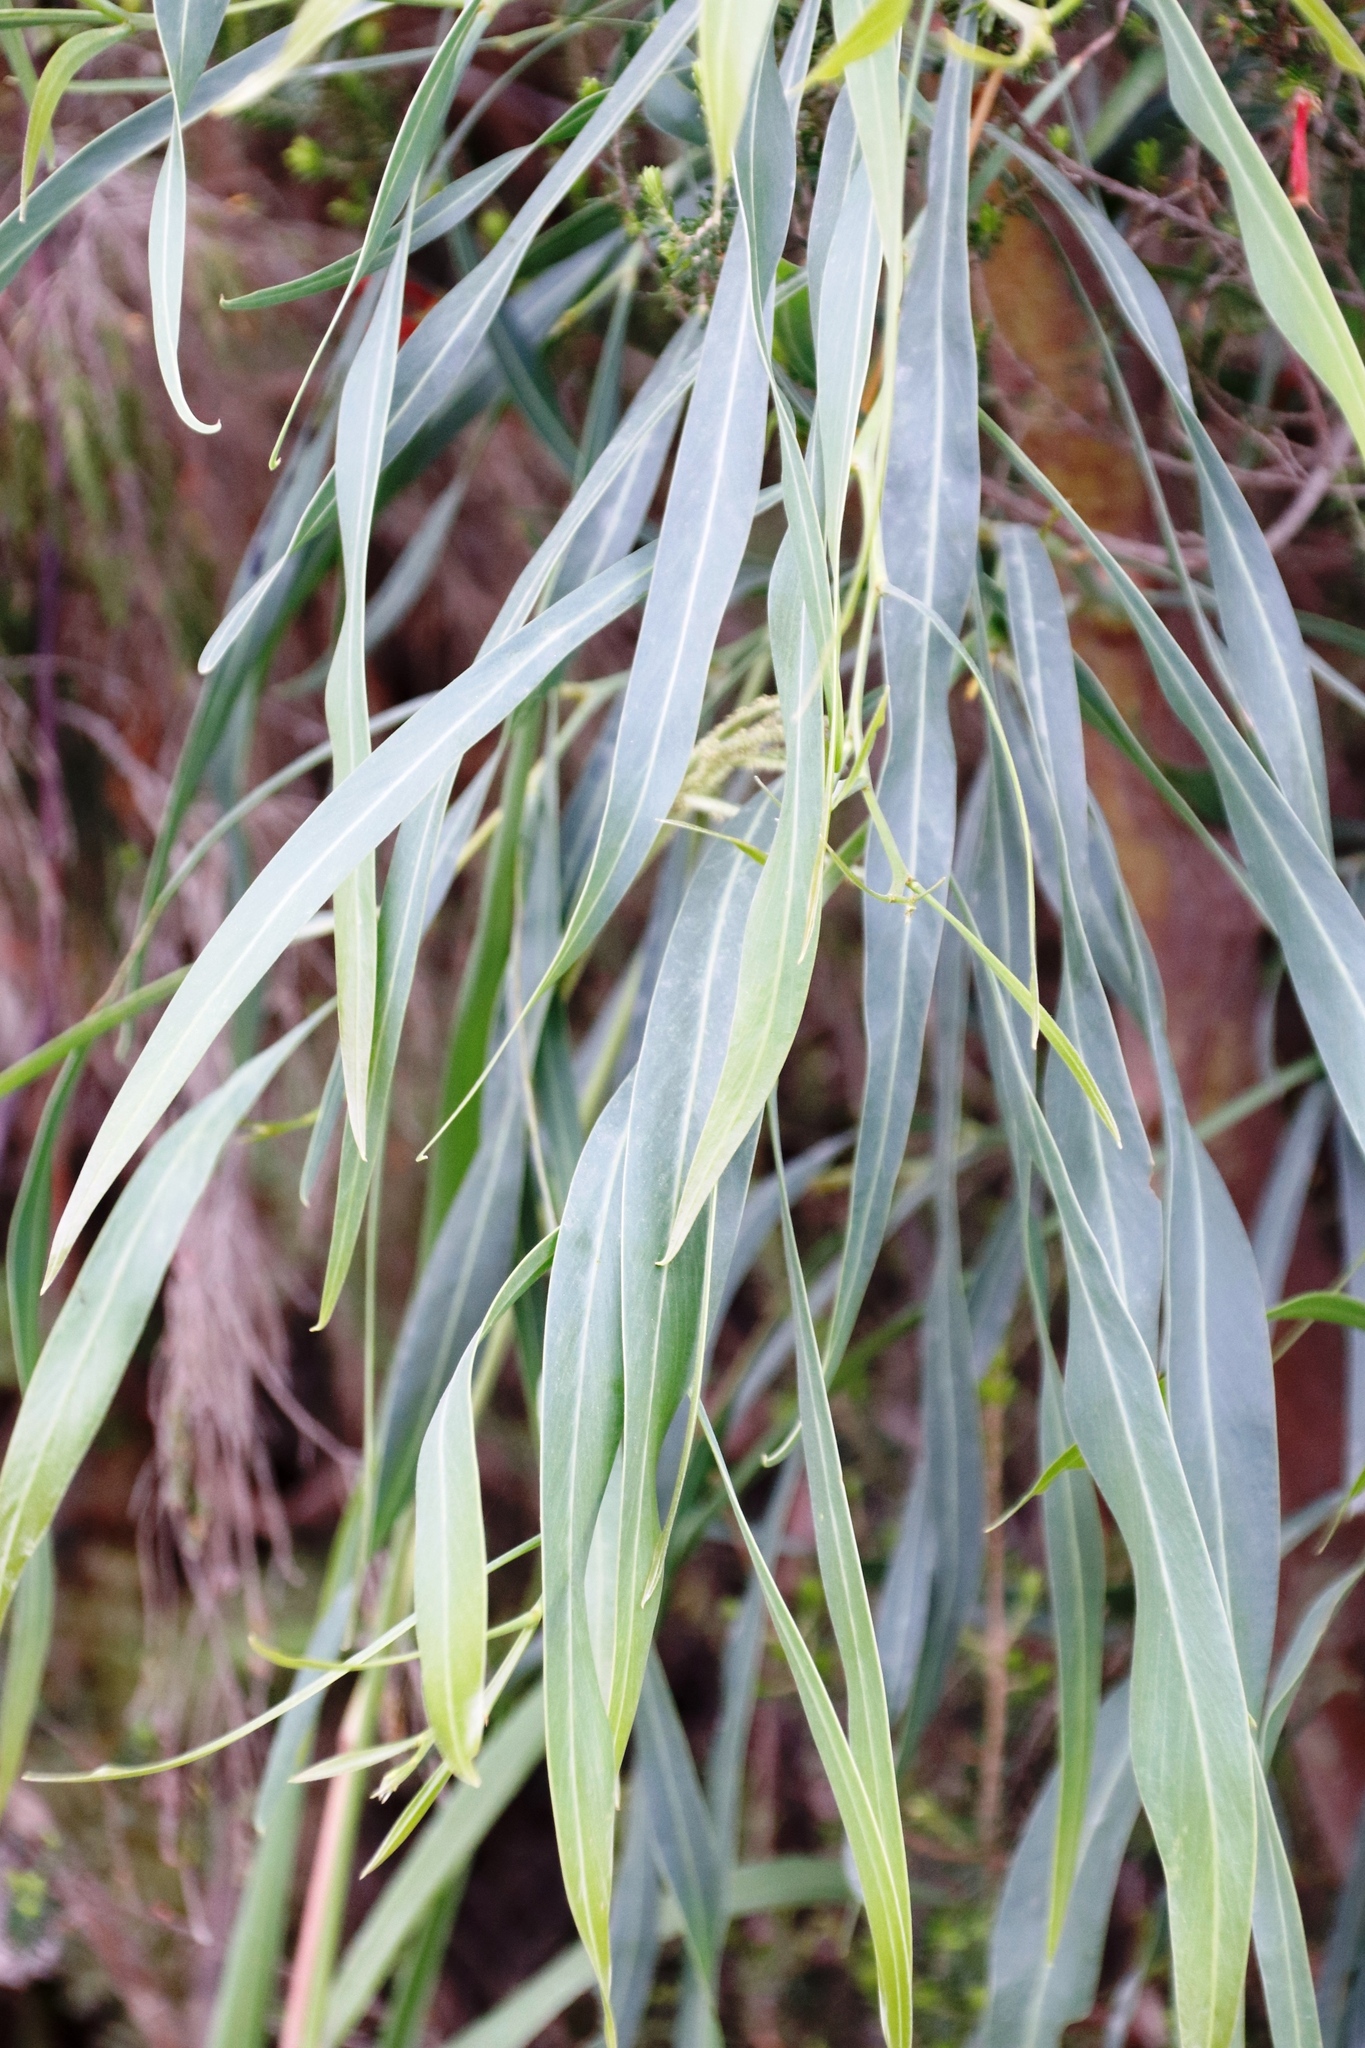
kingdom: Plantae
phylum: Tracheophyta
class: Magnoliopsida
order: Fabales
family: Fabaceae
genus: Acacia
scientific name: Acacia saligna
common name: Orange wattle
